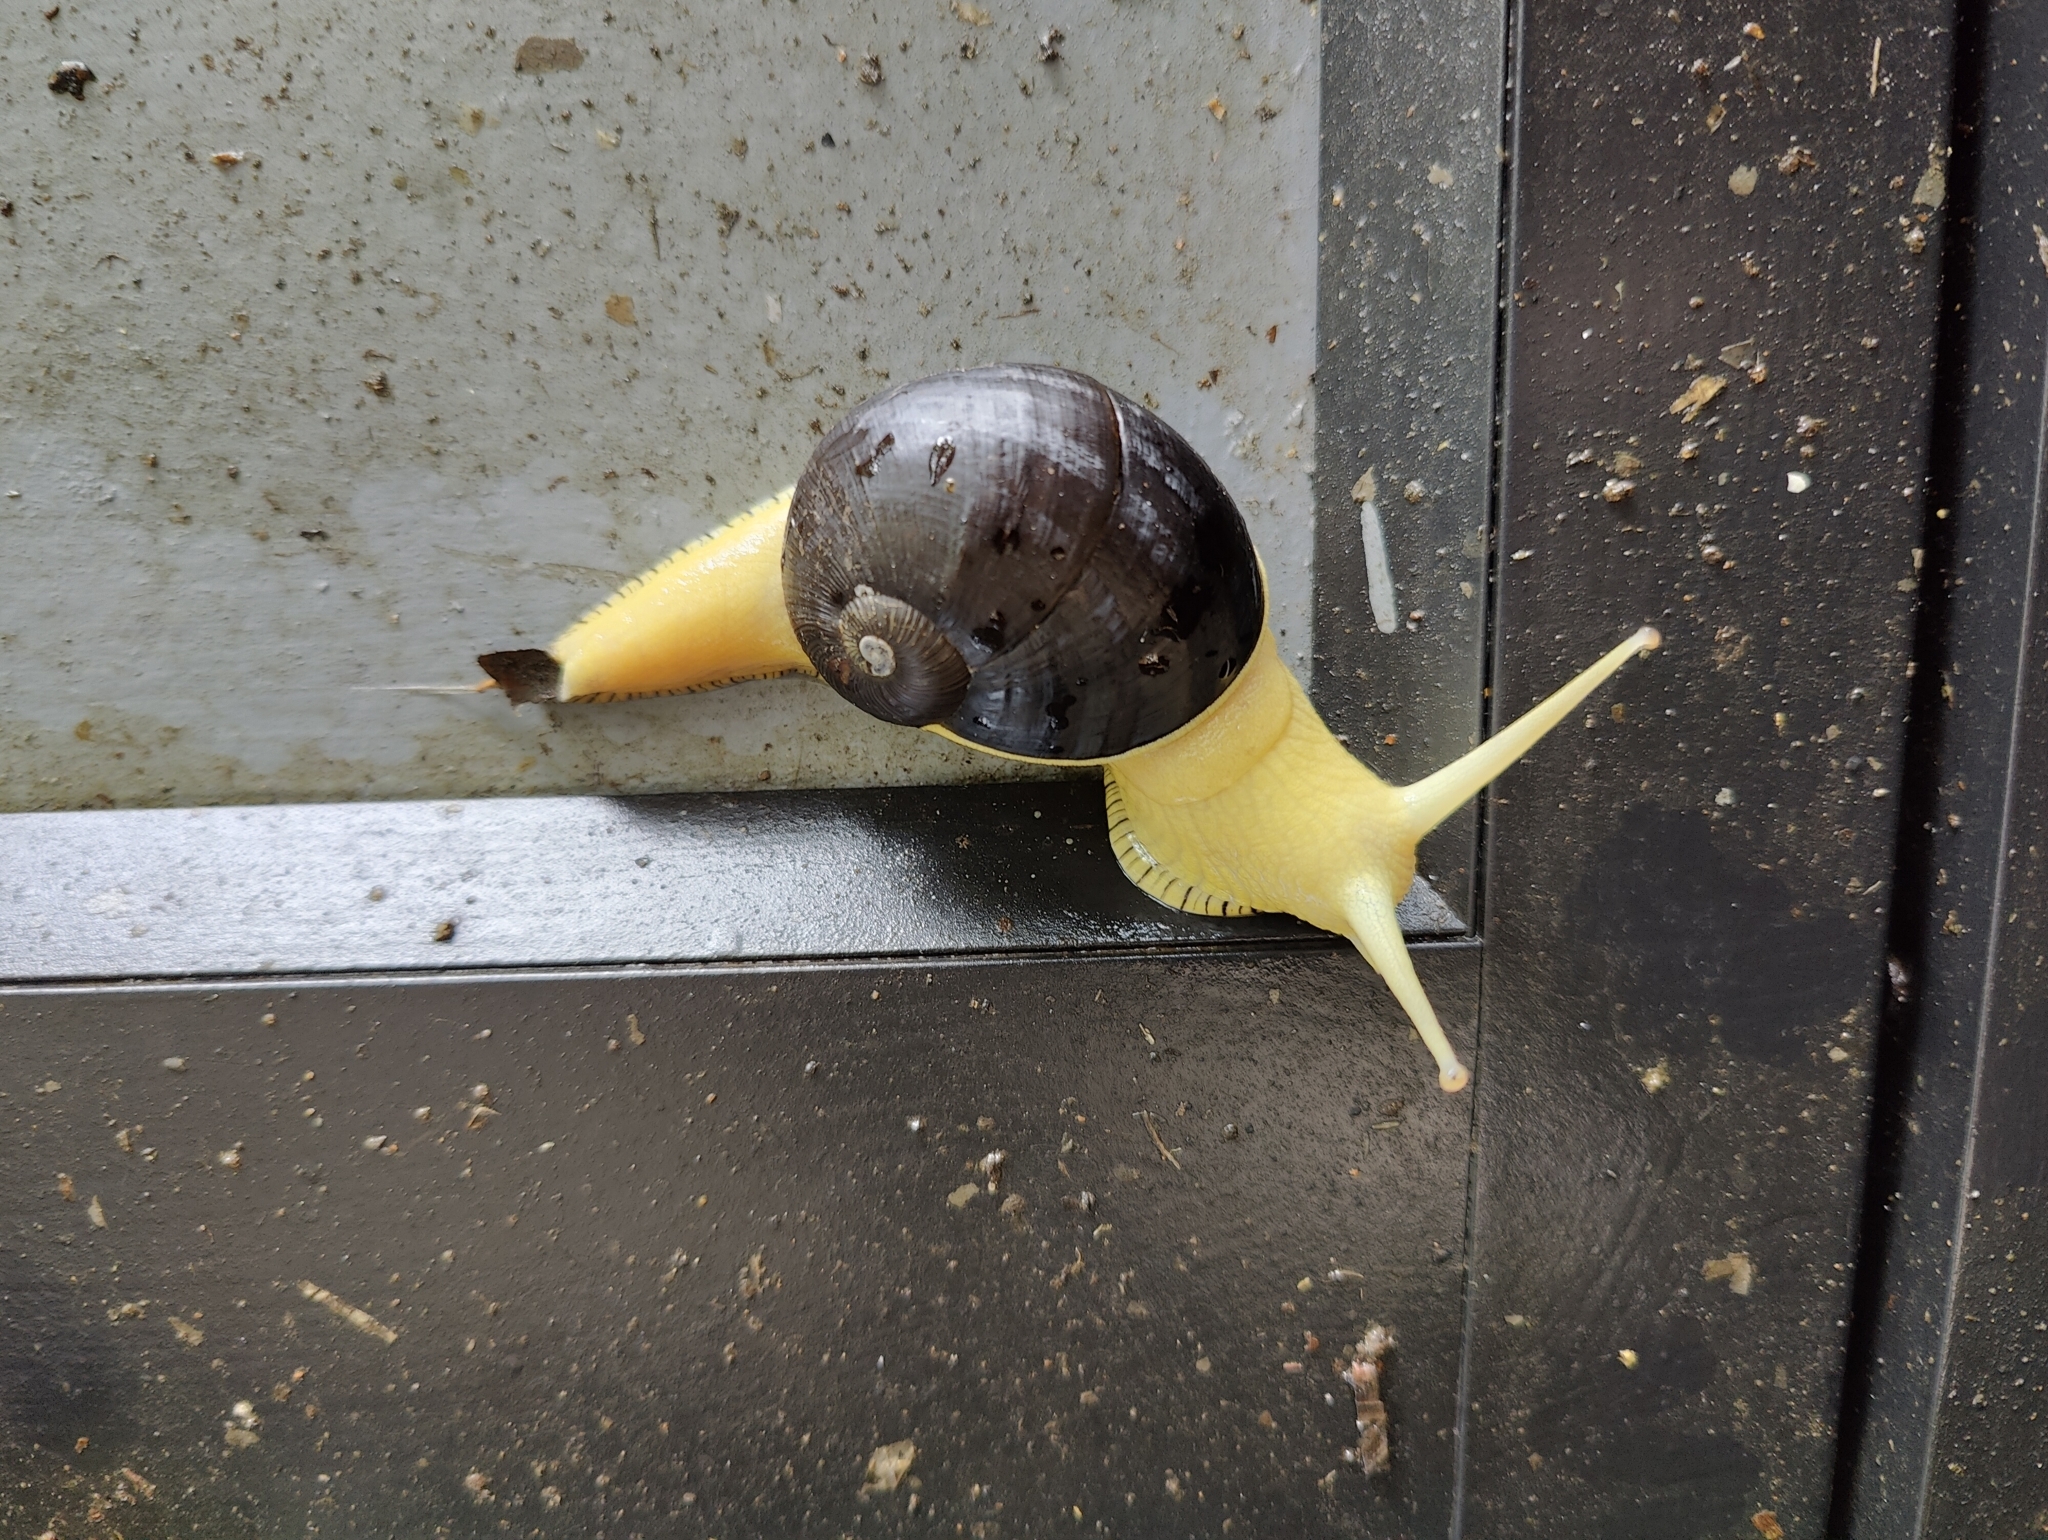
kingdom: Animalia
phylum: Mollusca
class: Gastropoda
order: Stylommatophora
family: Ariophantidae
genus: Indrella
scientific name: Indrella ampulla
